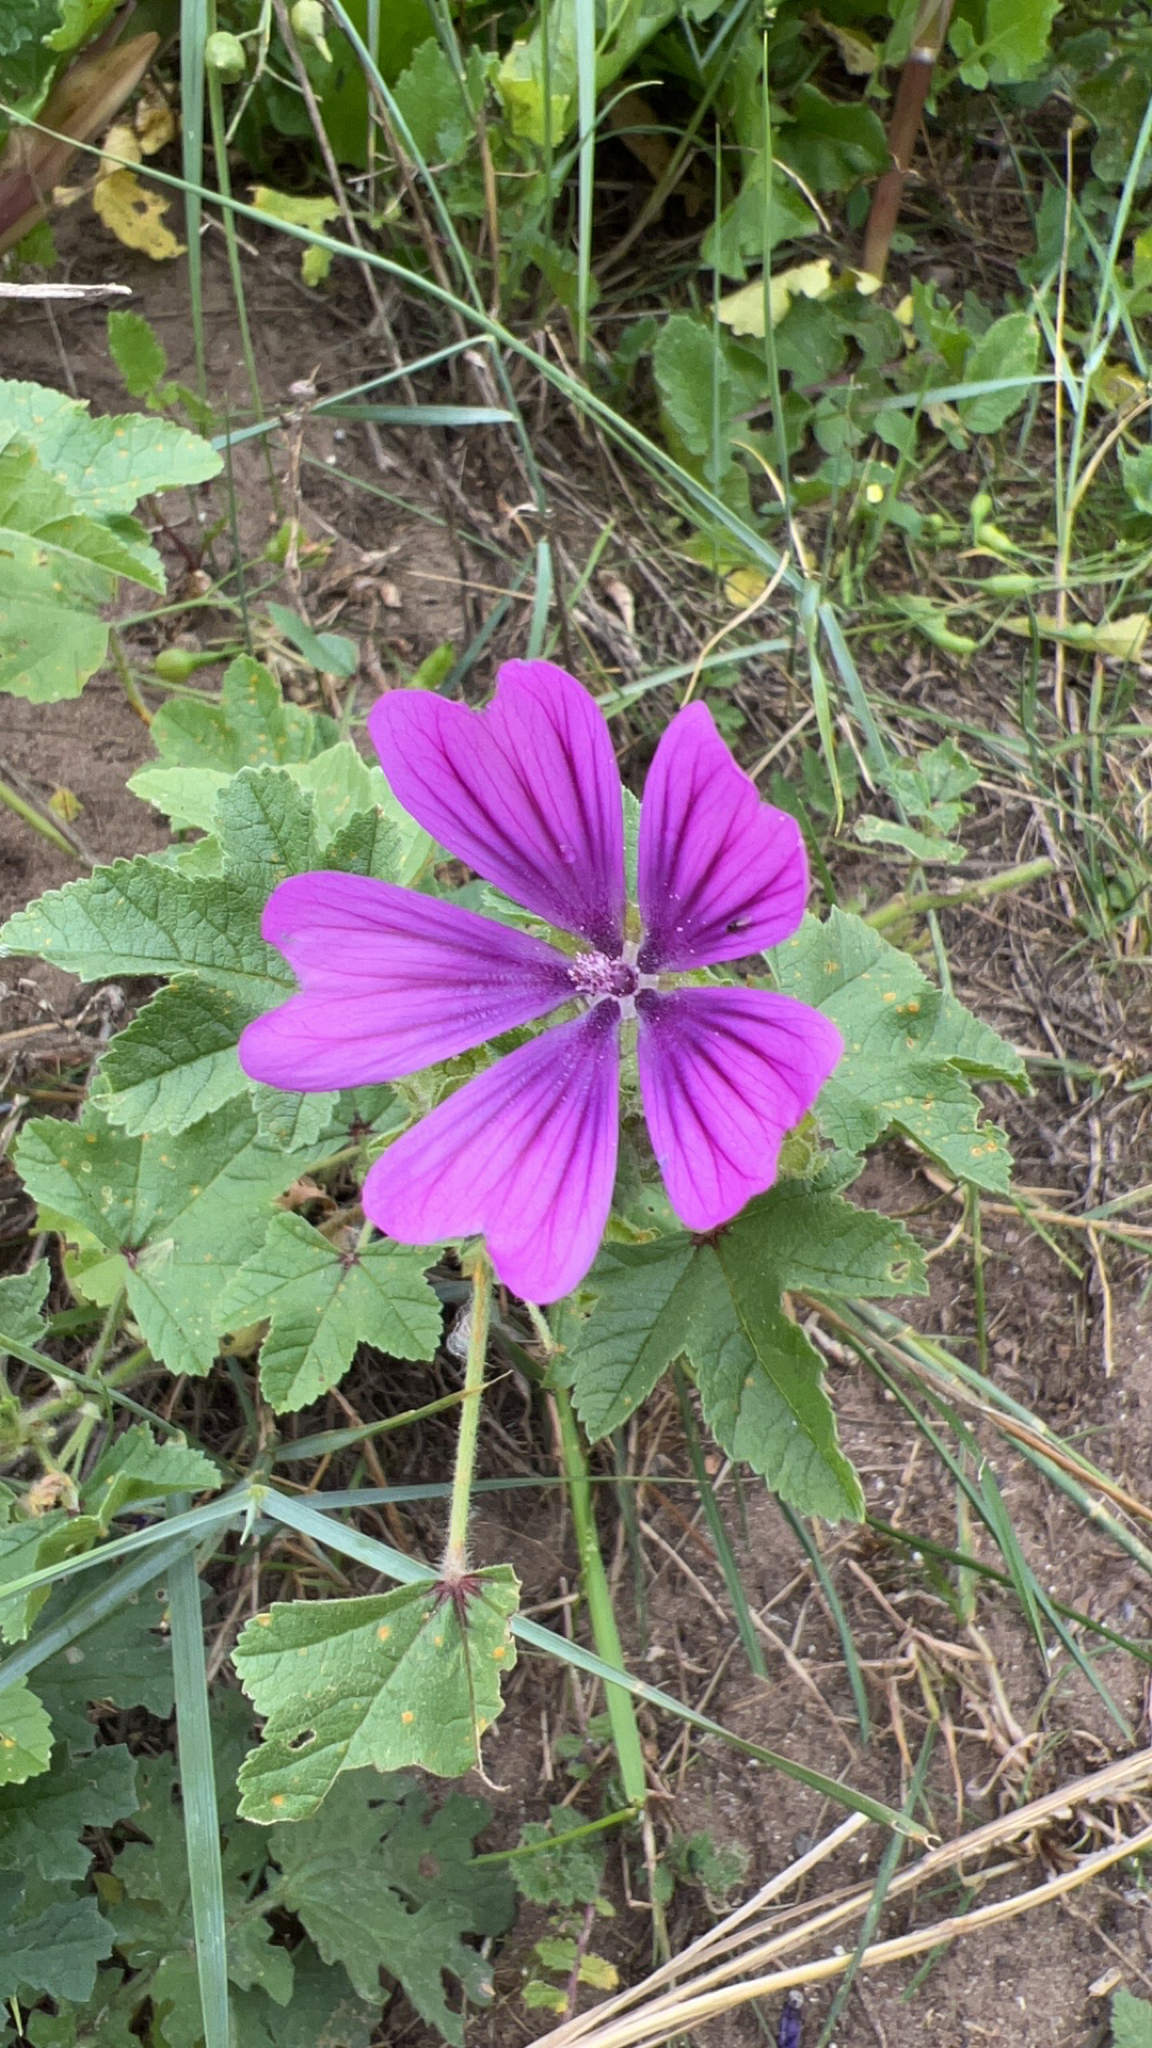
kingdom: Plantae
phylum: Tracheophyta
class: Magnoliopsida
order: Malvales
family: Malvaceae
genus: Malva
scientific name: Malva sylvestris
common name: Common mallow
